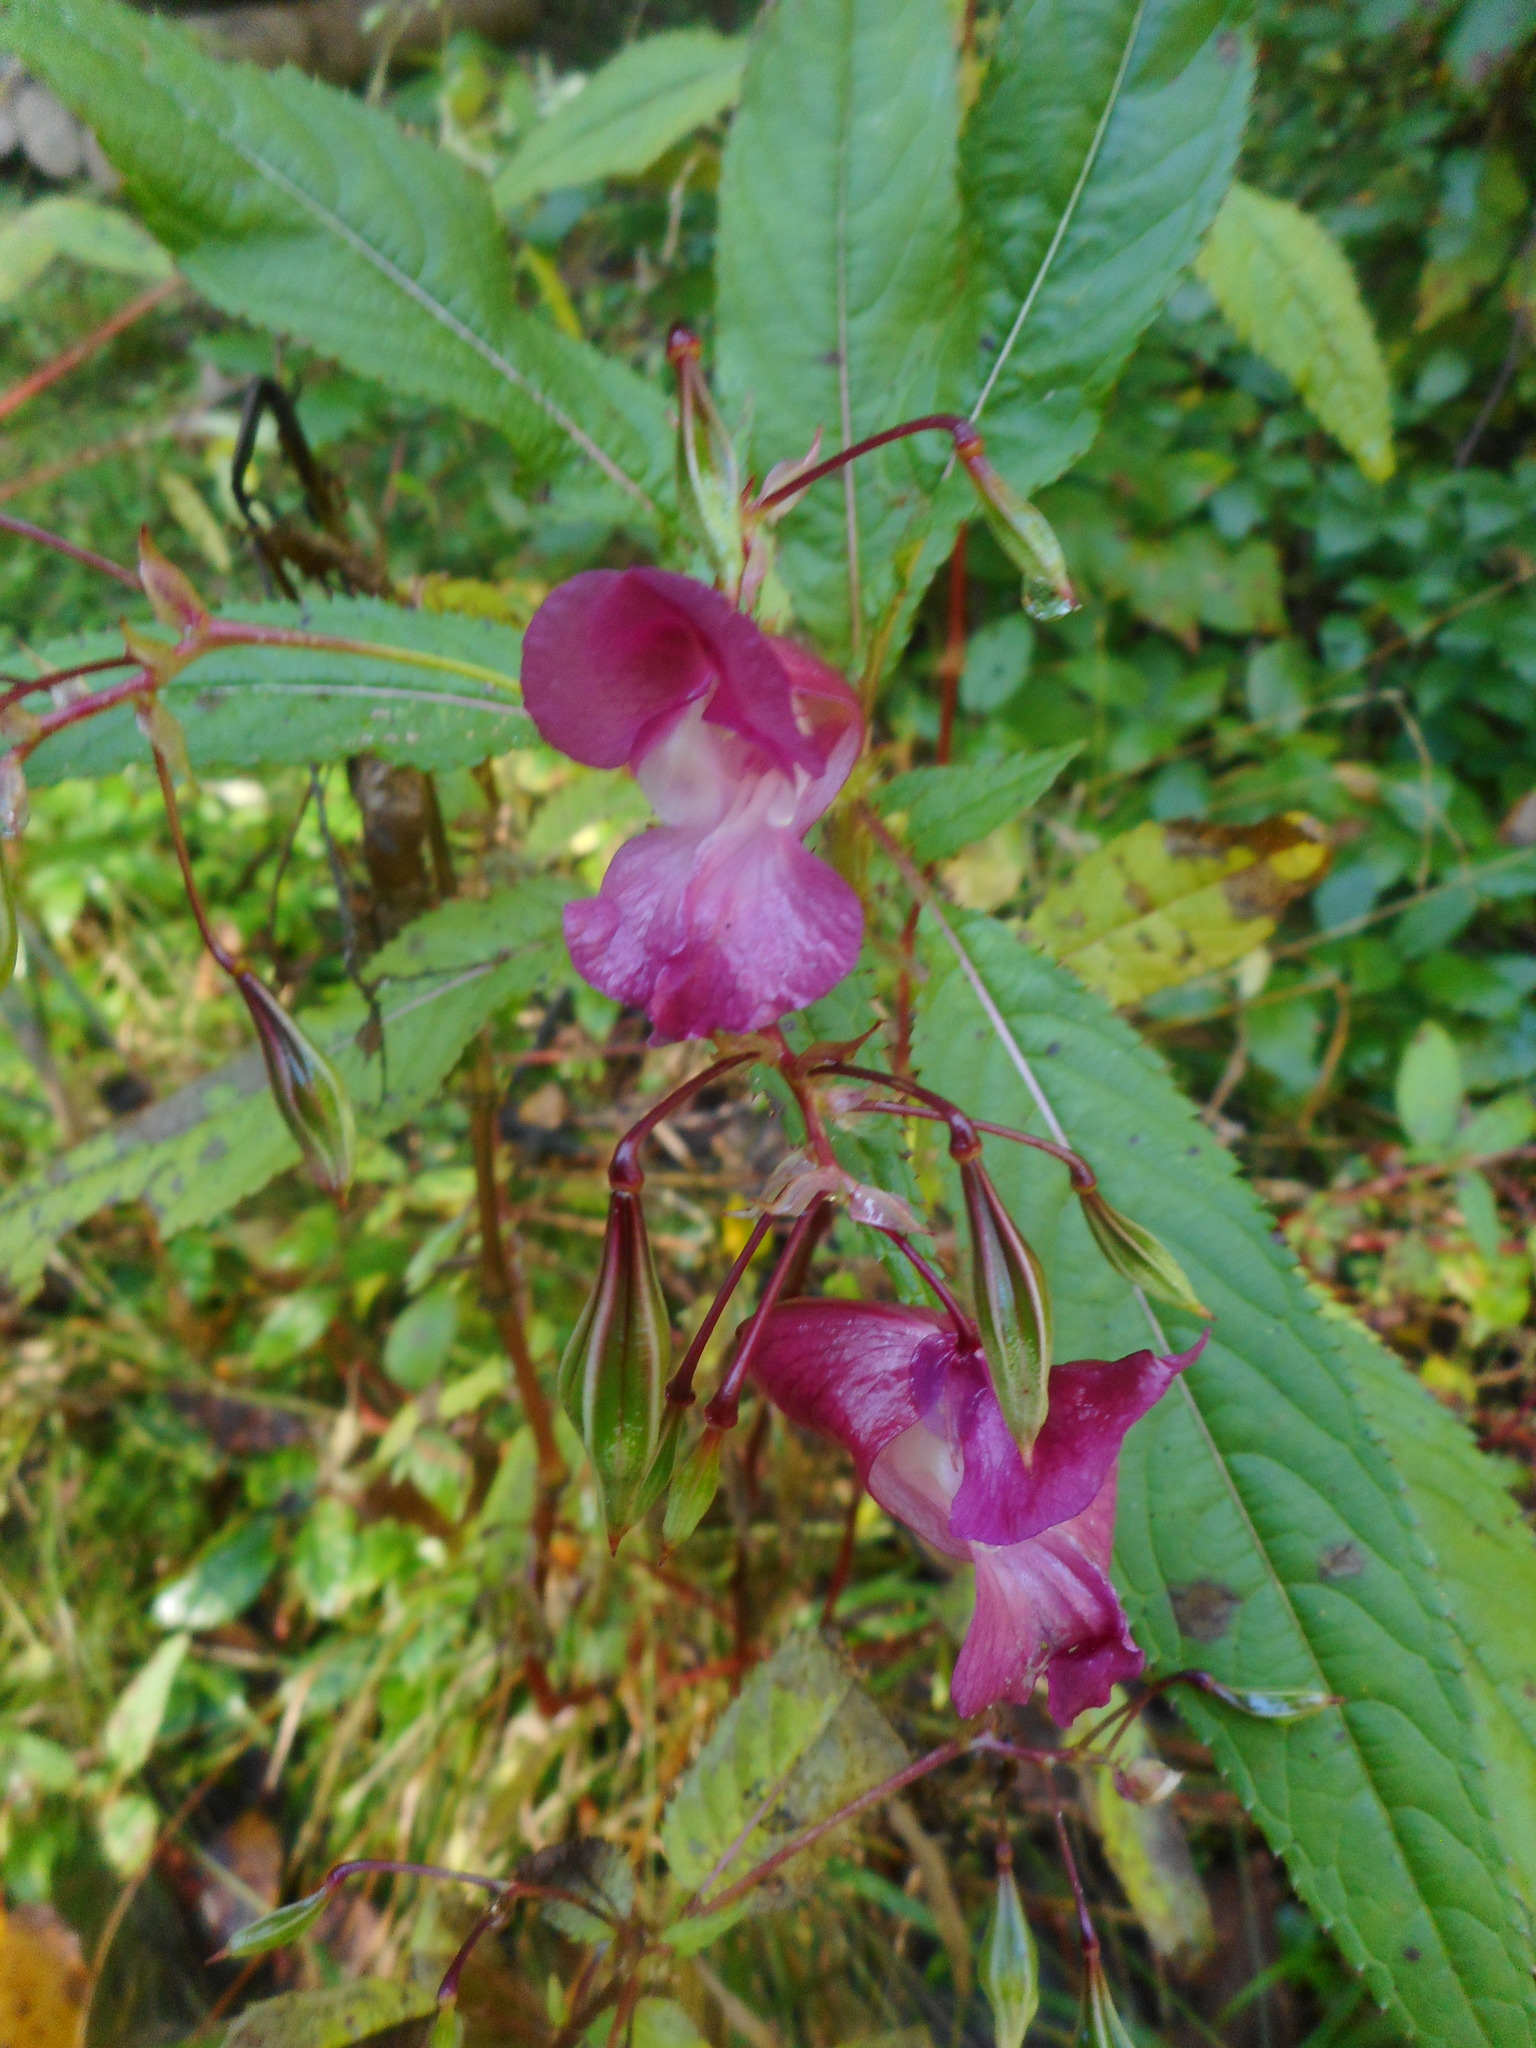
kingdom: Plantae
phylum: Tracheophyta
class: Magnoliopsida
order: Ericales
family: Balsaminaceae
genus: Impatiens
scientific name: Impatiens glandulifera
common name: Himalayan balsam
